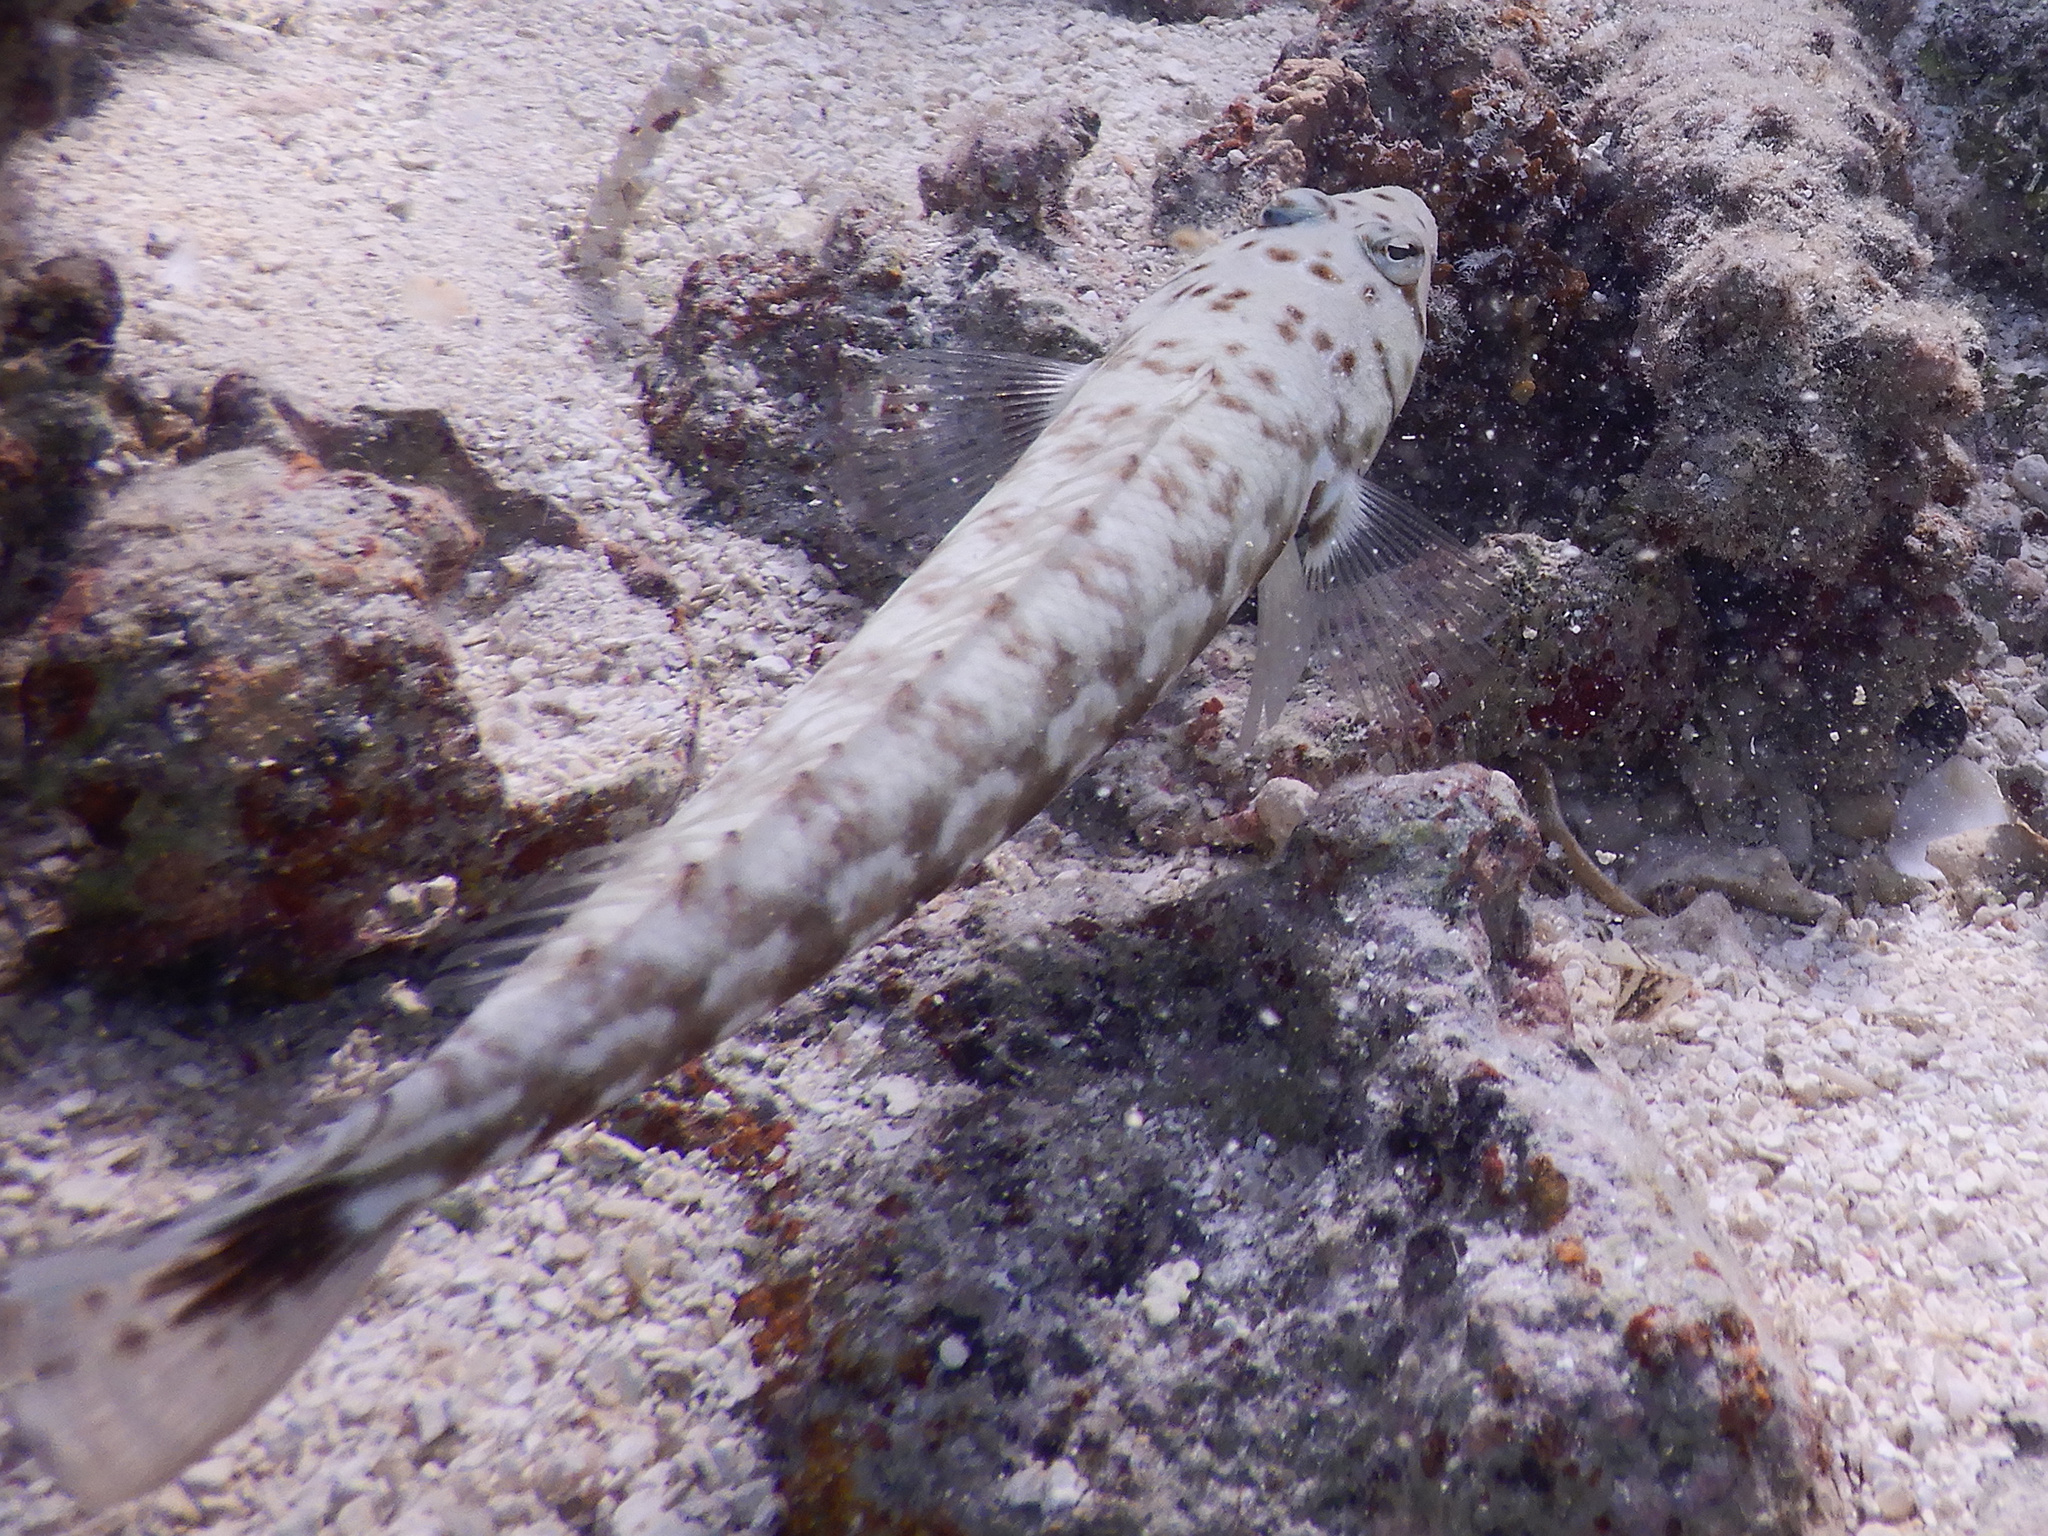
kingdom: Animalia
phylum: Chordata
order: Perciformes
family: Pinguipedidae
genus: Parapercis
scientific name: Parapercis millepunctata
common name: Black-dotted sandperch
